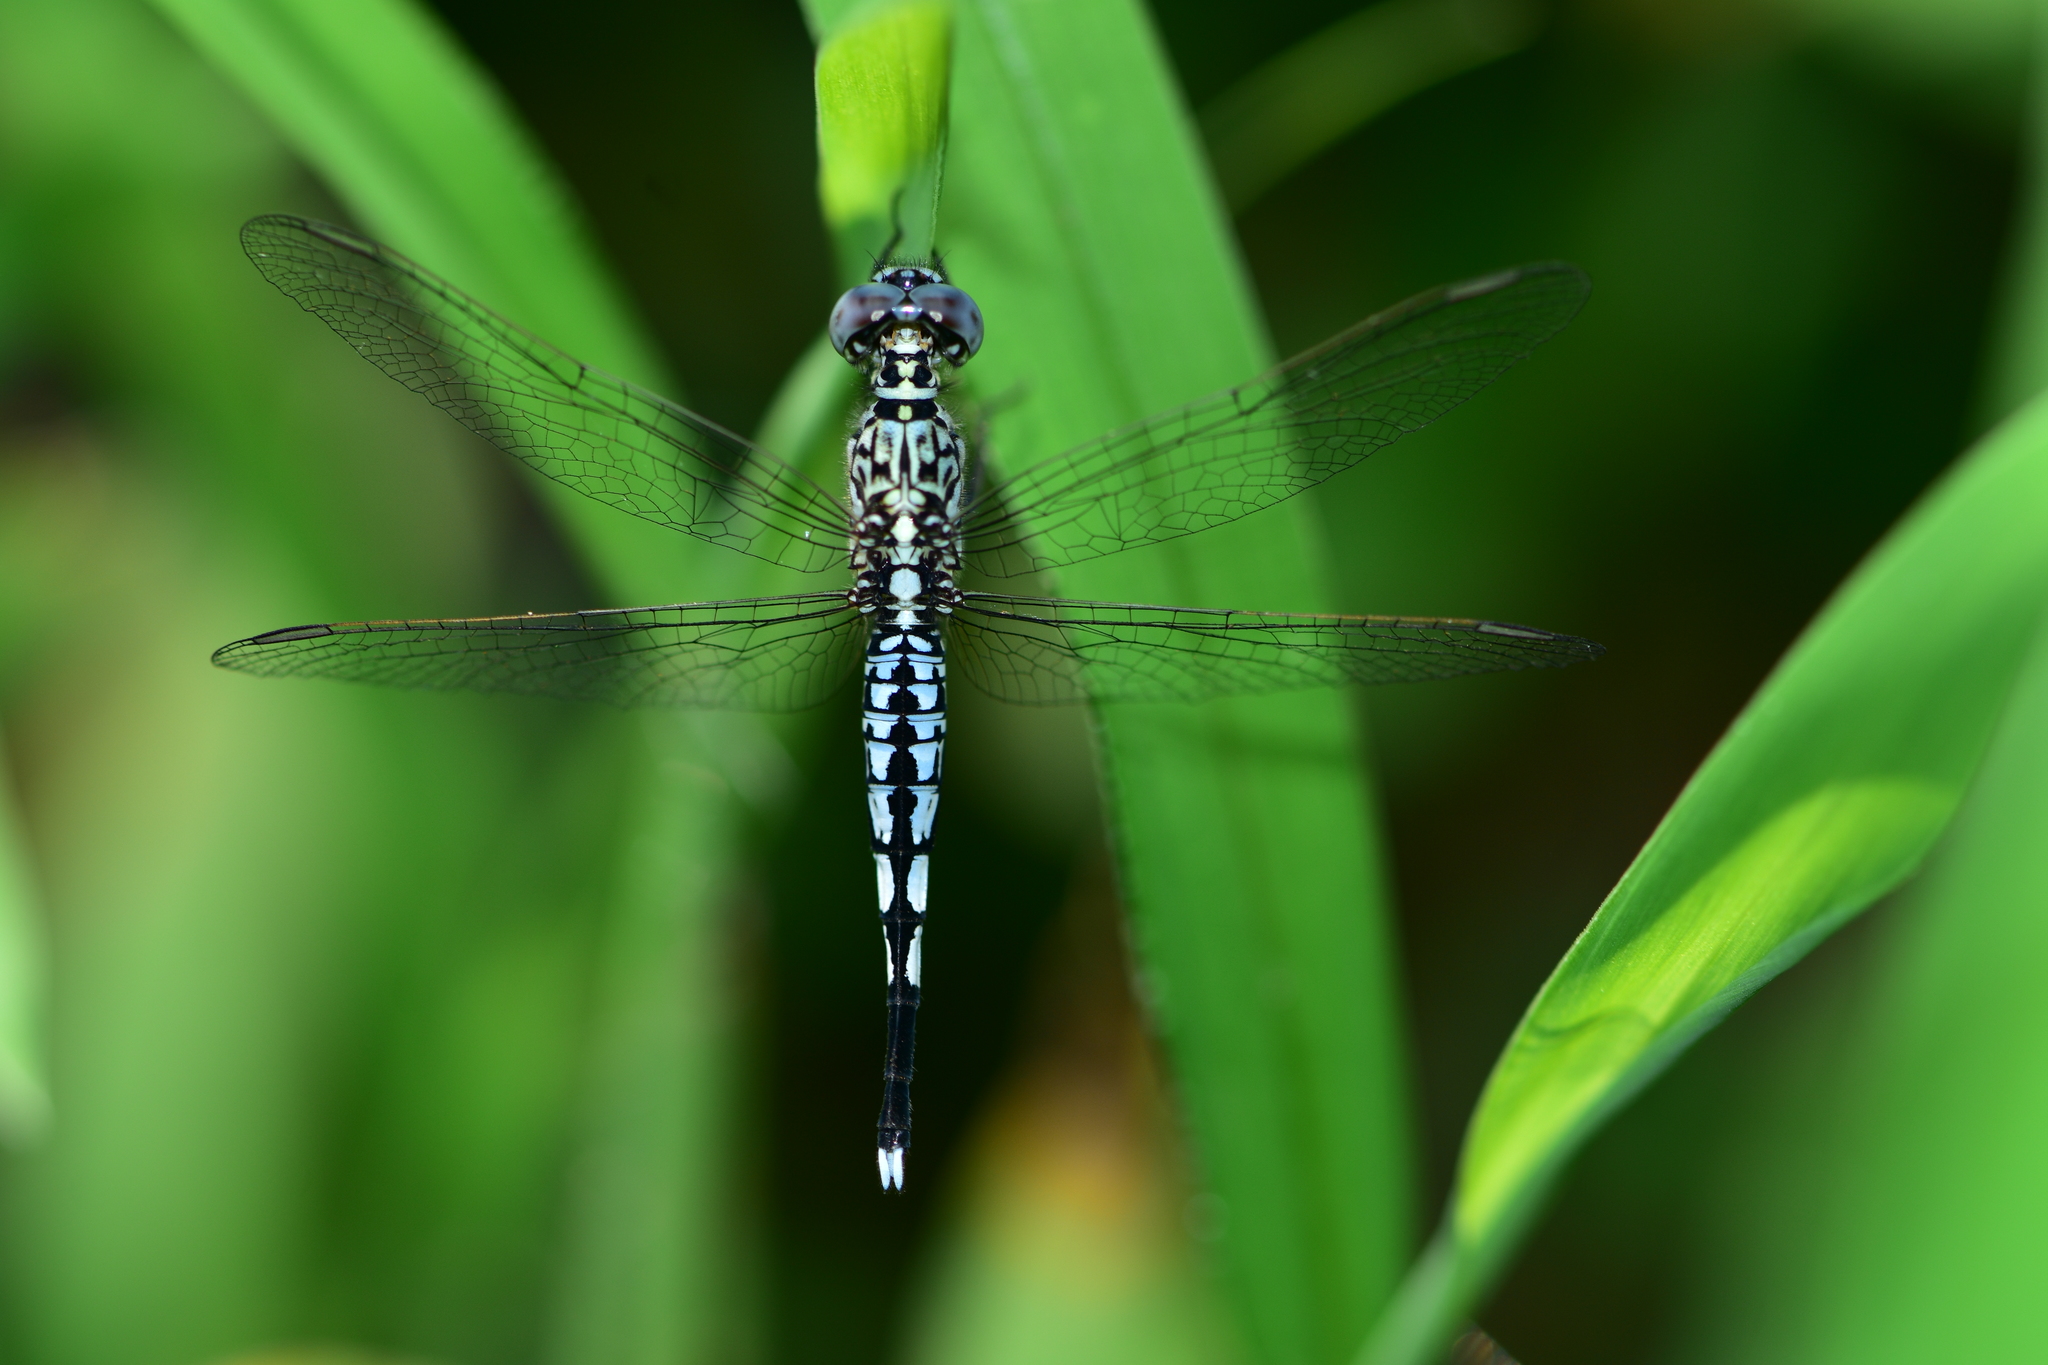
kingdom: Animalia
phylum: Arthropoda
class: Insecta
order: Odonata
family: Libellulidae
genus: Acisoma
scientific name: Acisoma panorpoides
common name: Asian pintail
